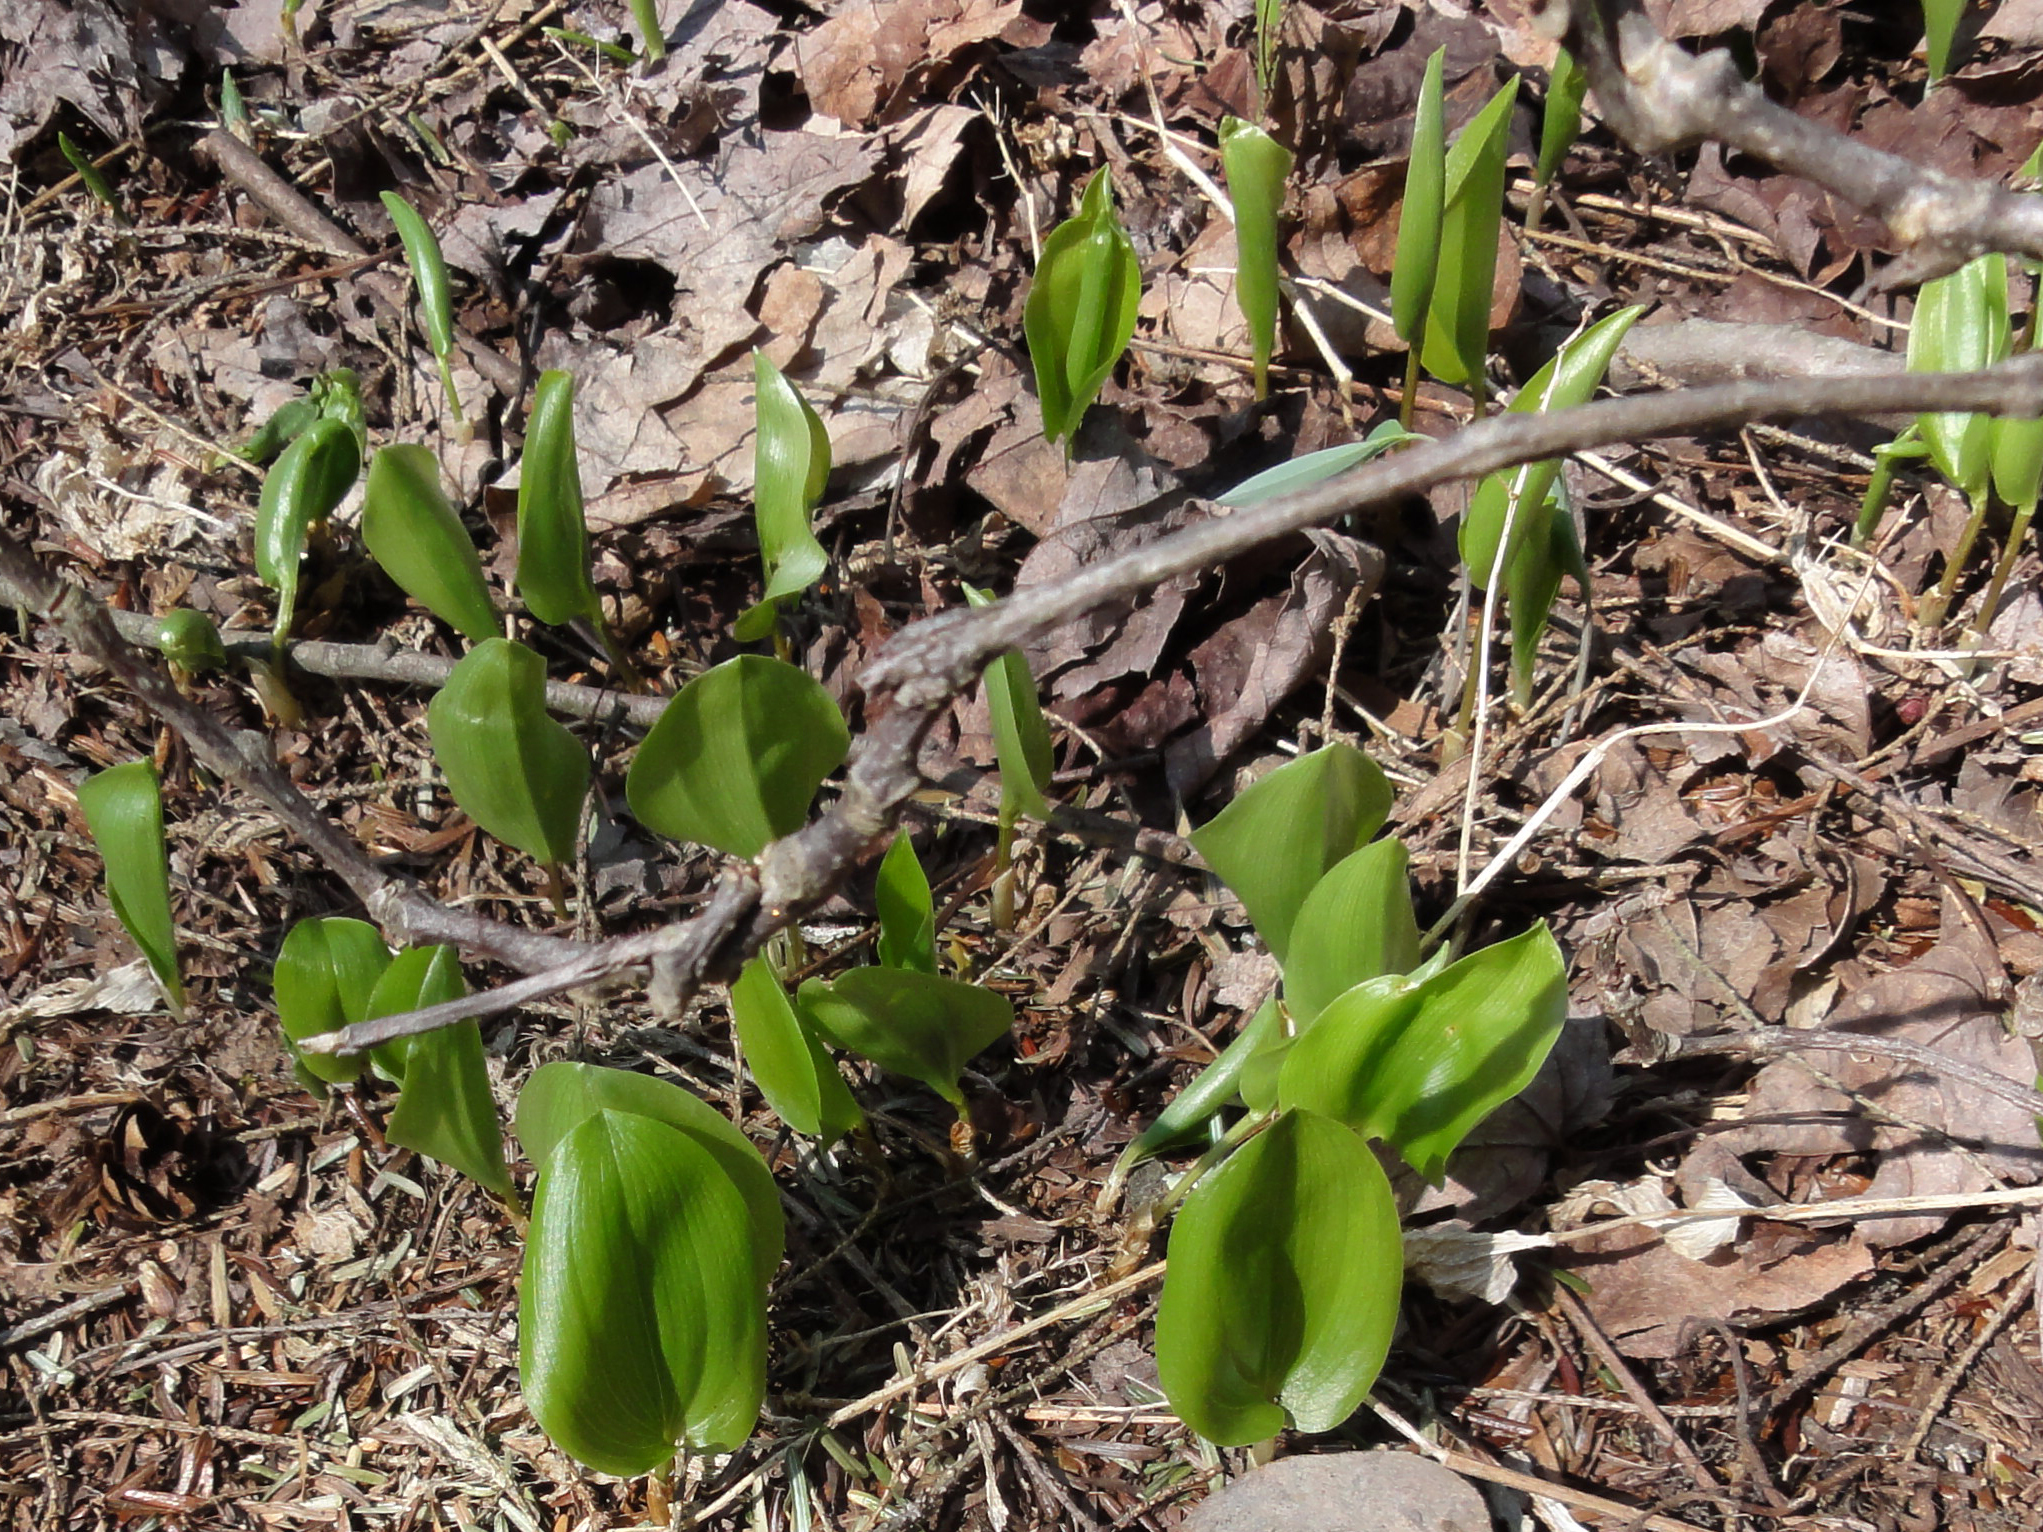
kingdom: Plantae
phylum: Tracheophyta
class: Liliopsida
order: Asparagales
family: Asparagaceae
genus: Maianthemum
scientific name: Maianthemum canadense
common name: False lily-of-the-valley
